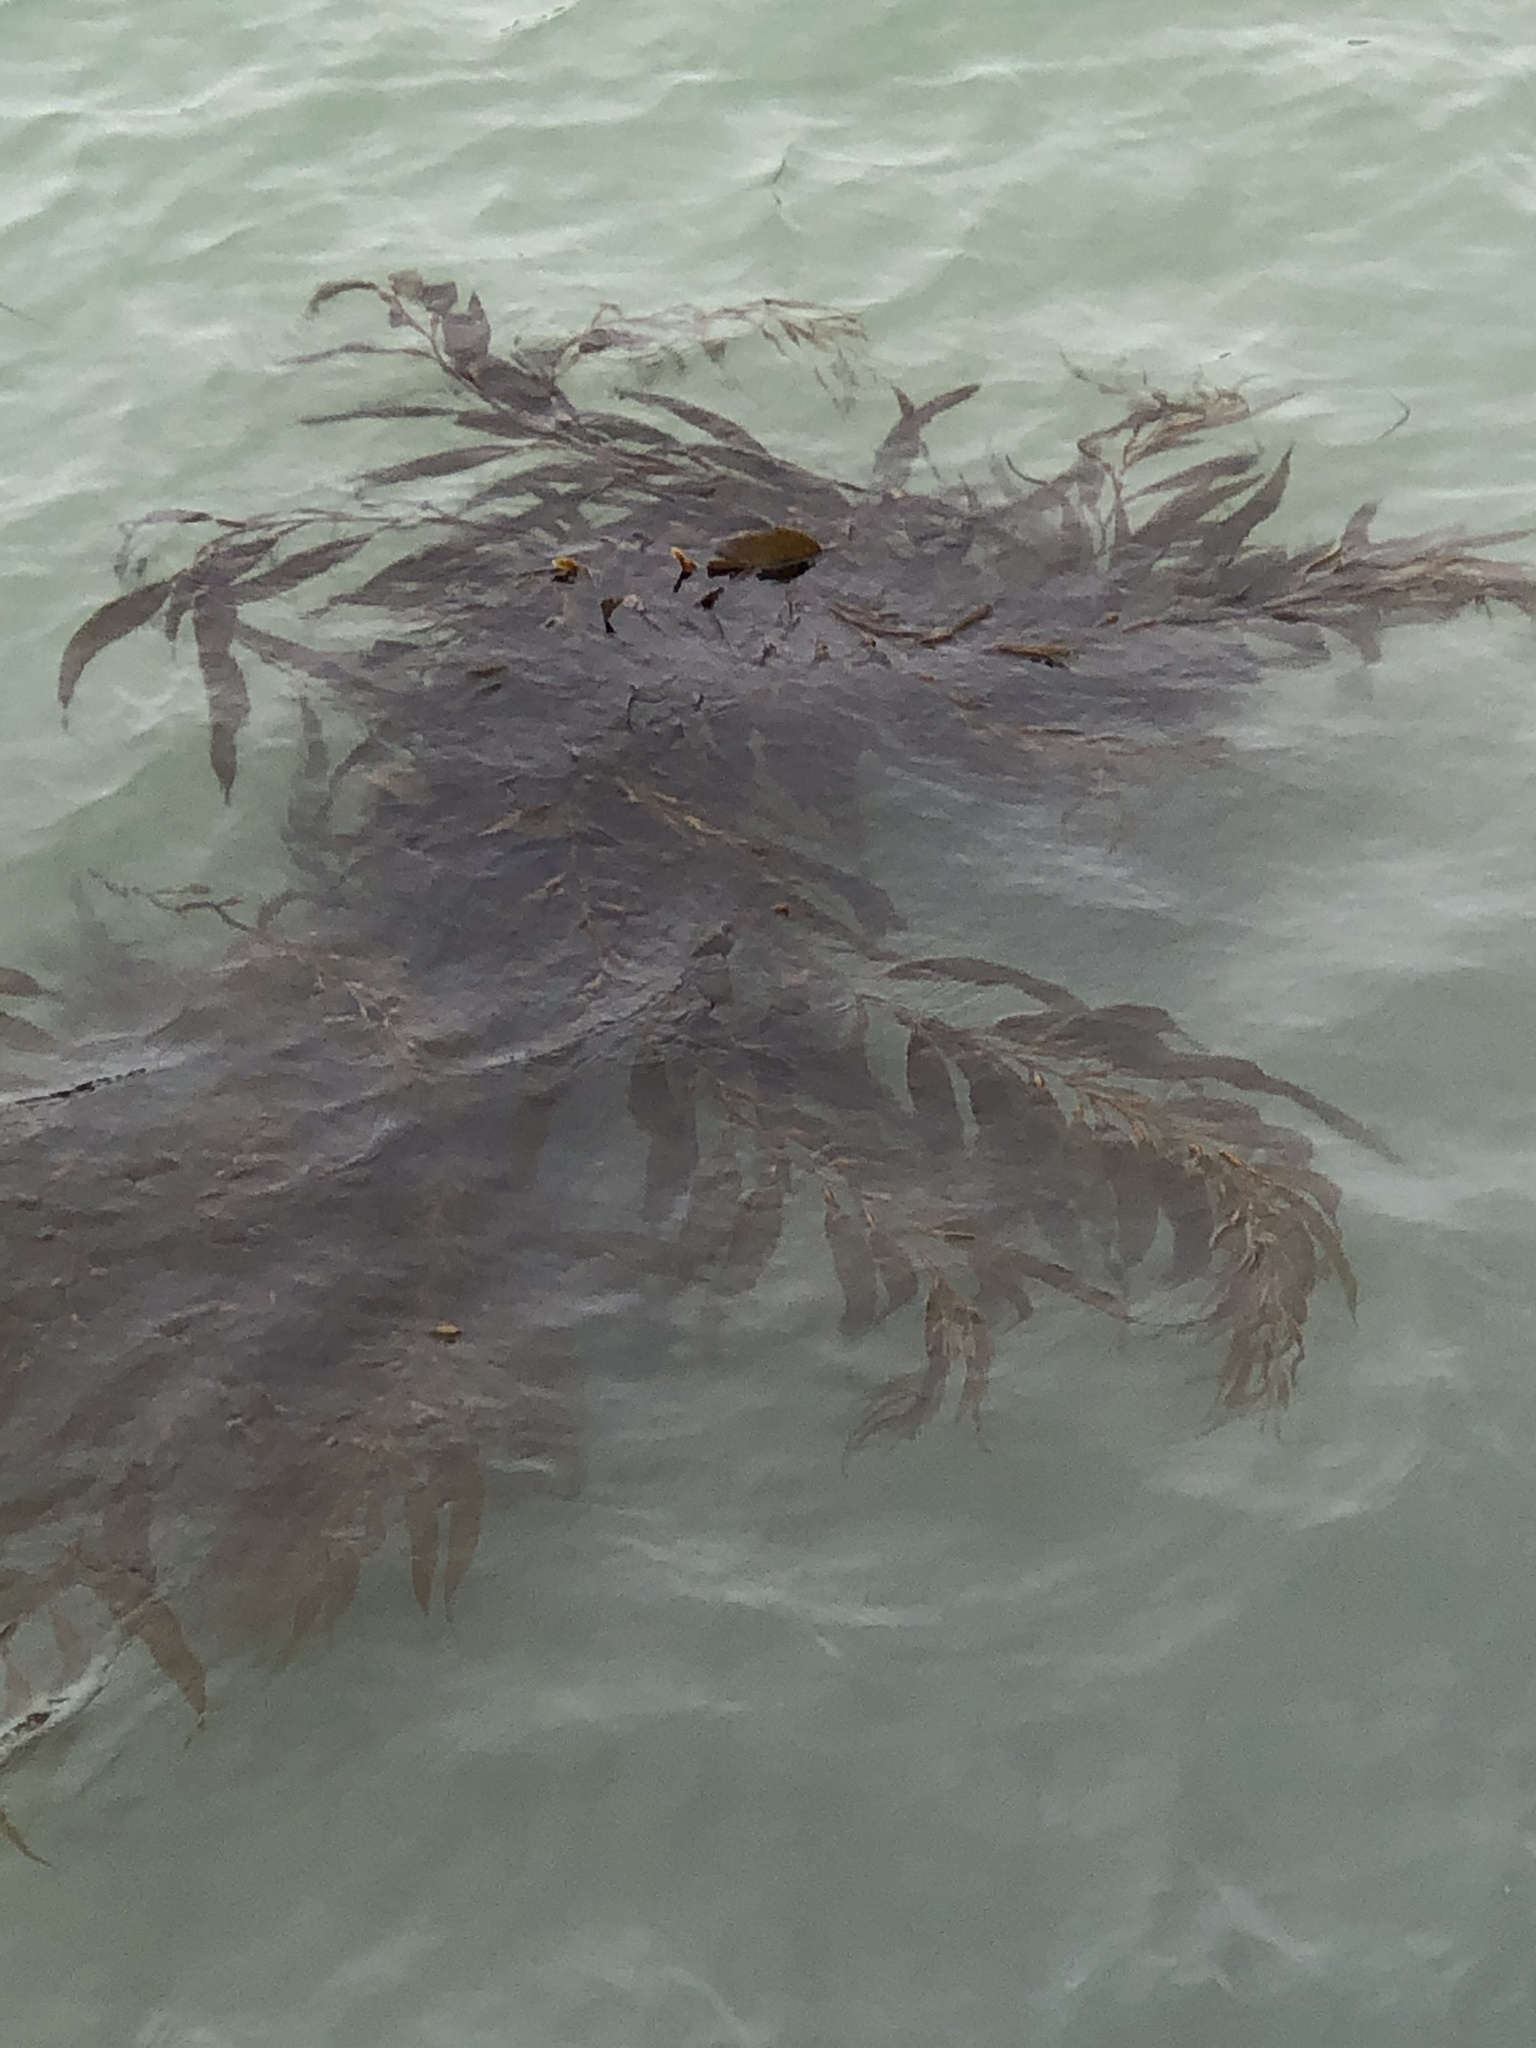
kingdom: Chromista
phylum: Ochrophyta
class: Phaeophyceae
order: Laminariales
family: Laminariaceae
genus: Macrocystis
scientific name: Macrocystis pyrifera
